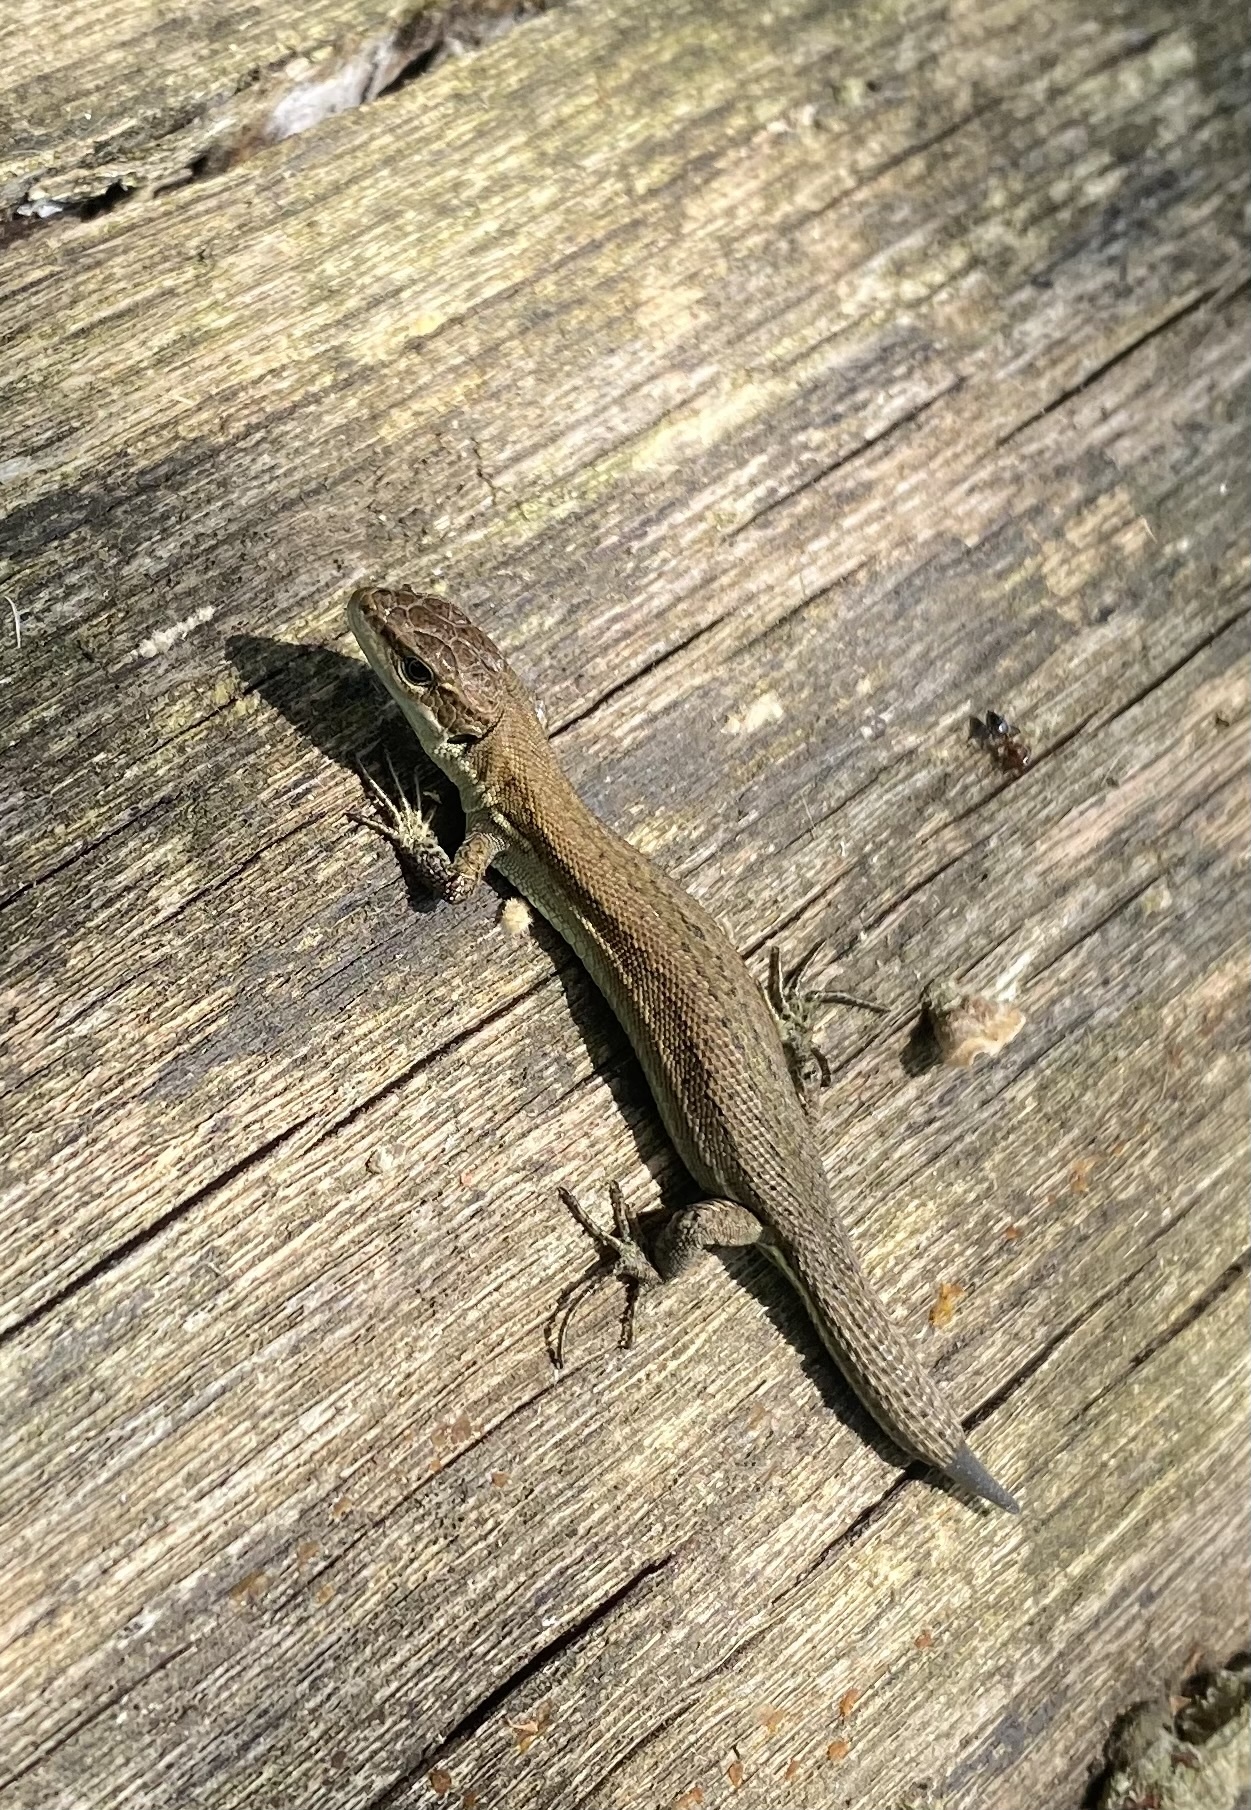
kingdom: Animalia
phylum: Chordata
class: Squamata
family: Lacertidae
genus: Darevskia
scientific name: Darevskia praticola
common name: Meadow lizard
